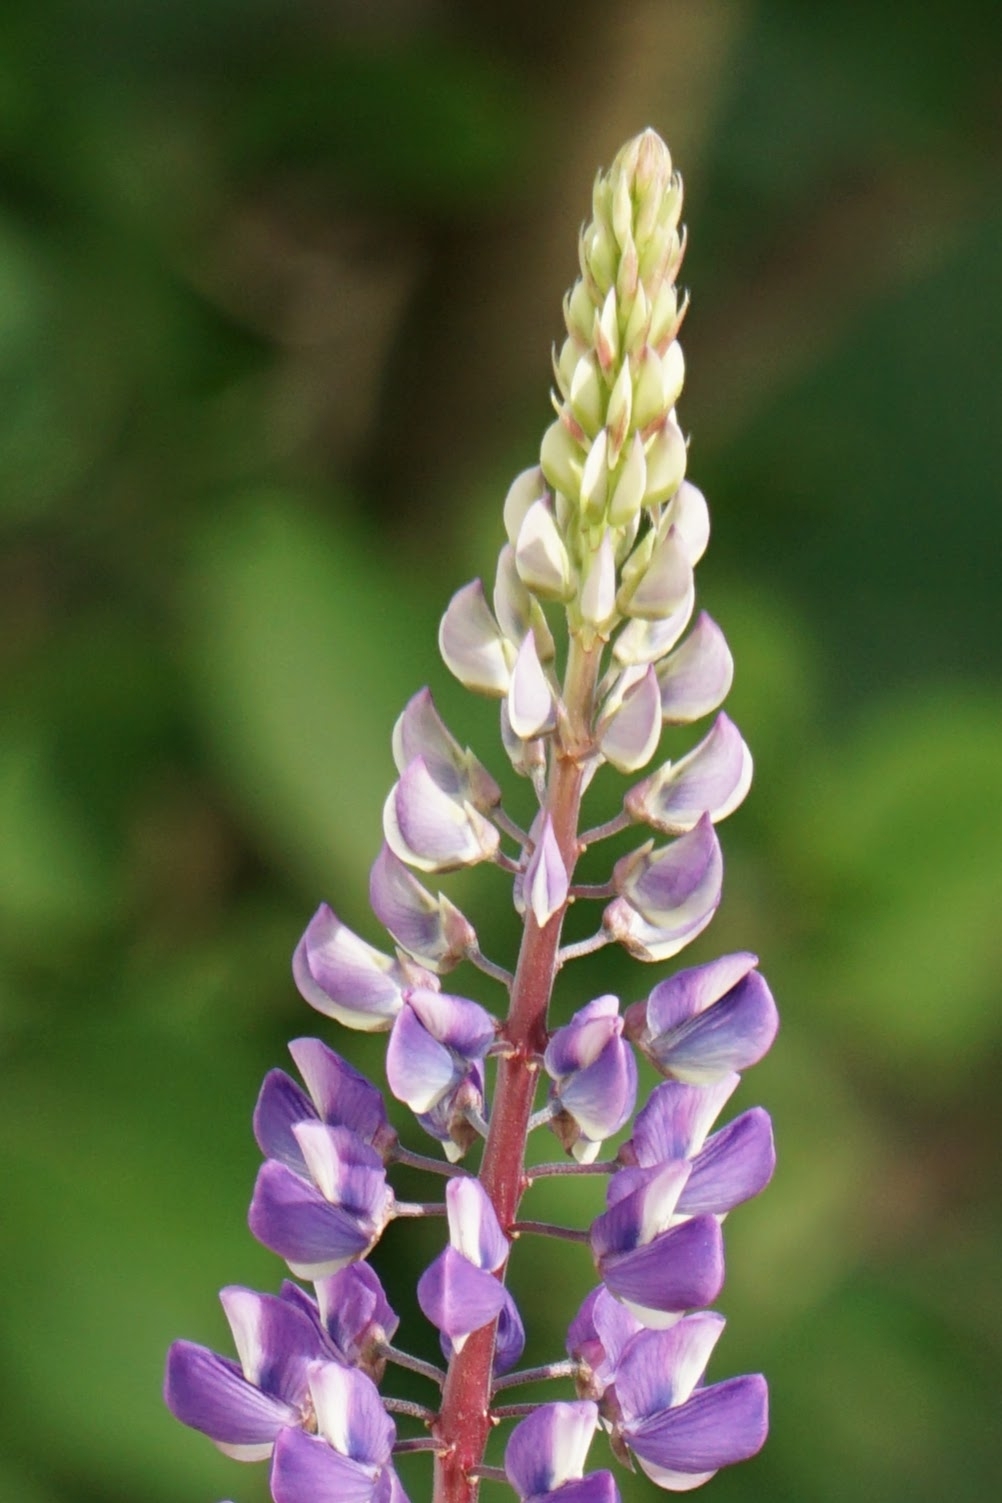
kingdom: Plantae
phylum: Tracheophyta
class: Magnoliopsida
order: Fabales
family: Fabaceae
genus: Lupinus
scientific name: Lupinus polyphyllus
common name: Garden lupin
